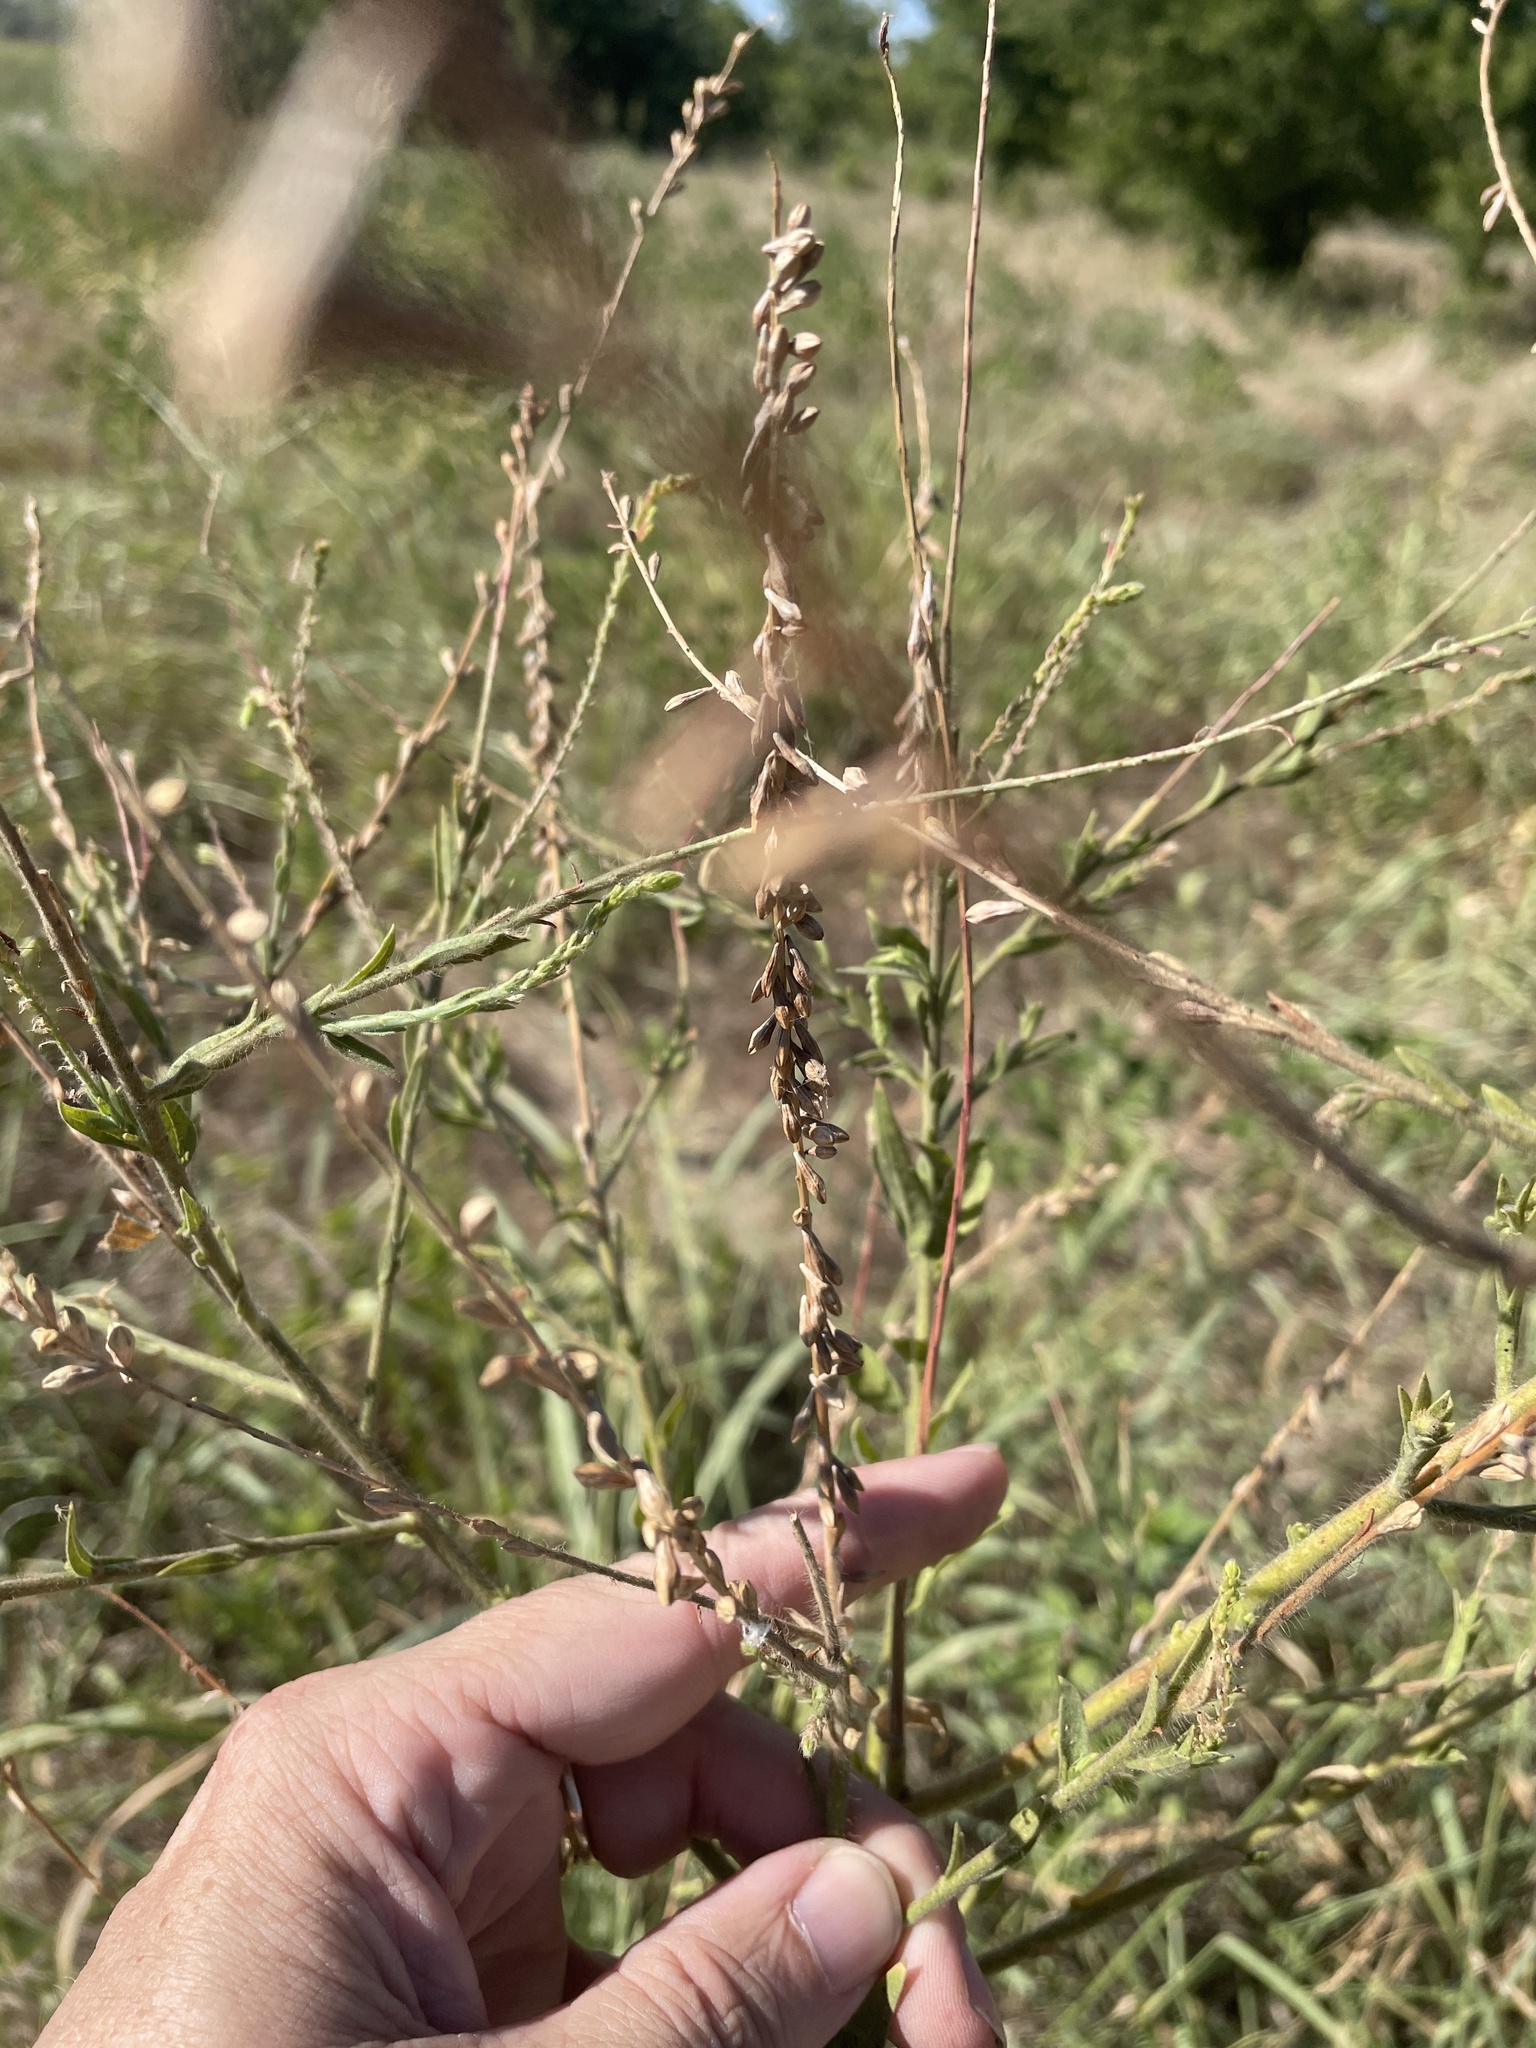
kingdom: Plantae
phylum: Tracheophyta
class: Magnoliopsida
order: Myrtales
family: Onagraceae
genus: Oenothera
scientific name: Oenothera curtiflora
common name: Velvetweed
